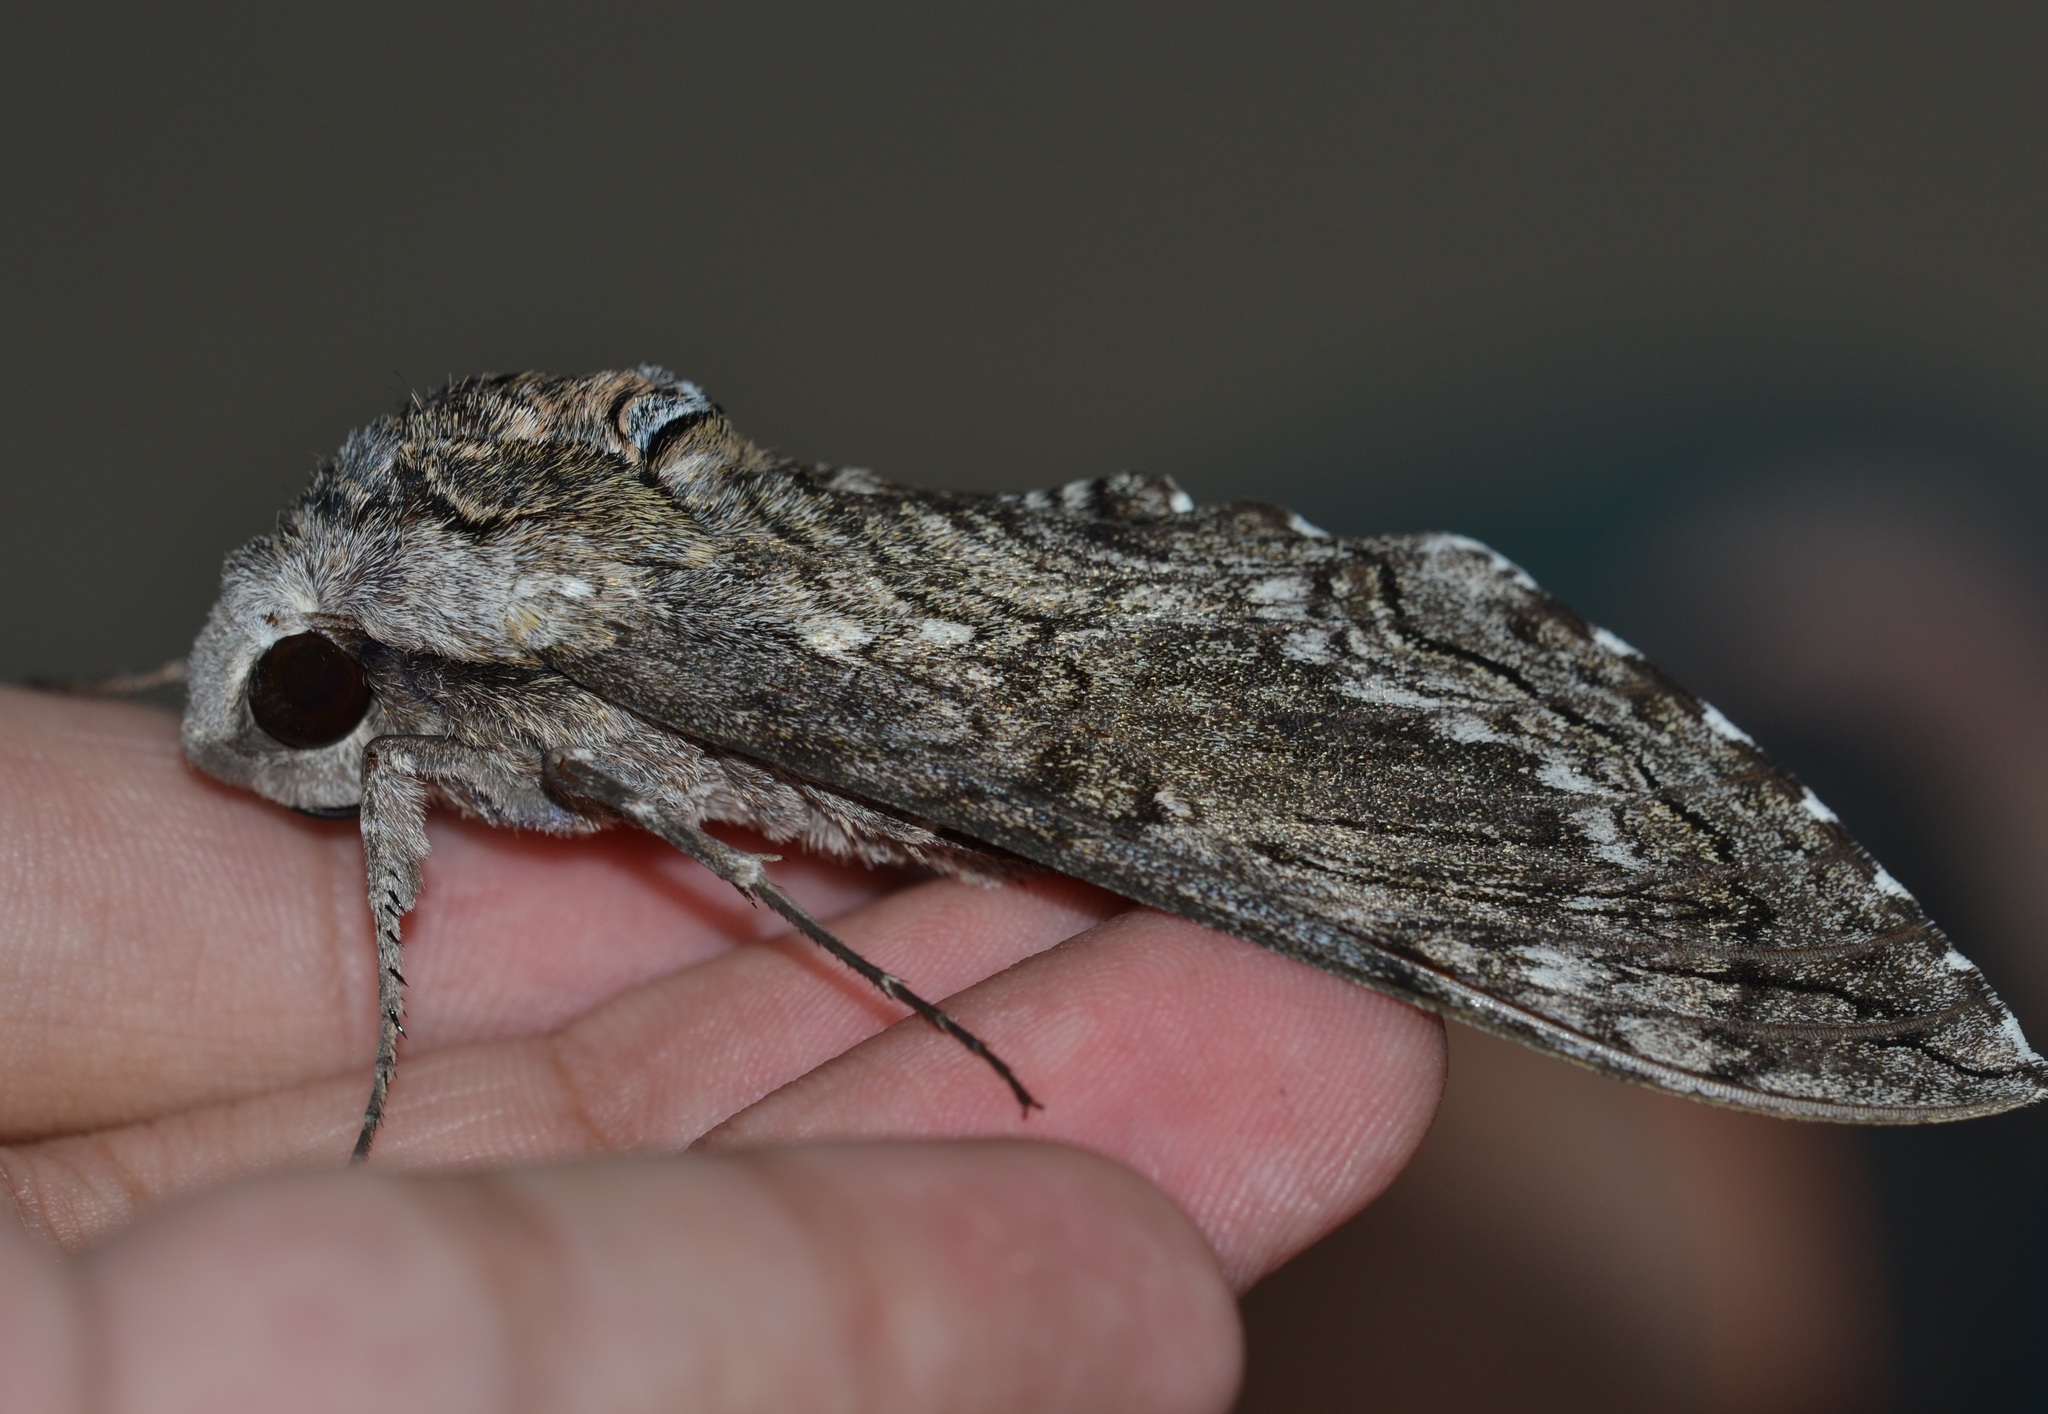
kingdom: Animalia
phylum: Arthropoda
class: Insecta
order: Lepidoptera
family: Sphingidae
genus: Manduca
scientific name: Manduca blackburni
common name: Blackburn's sphinx moth
